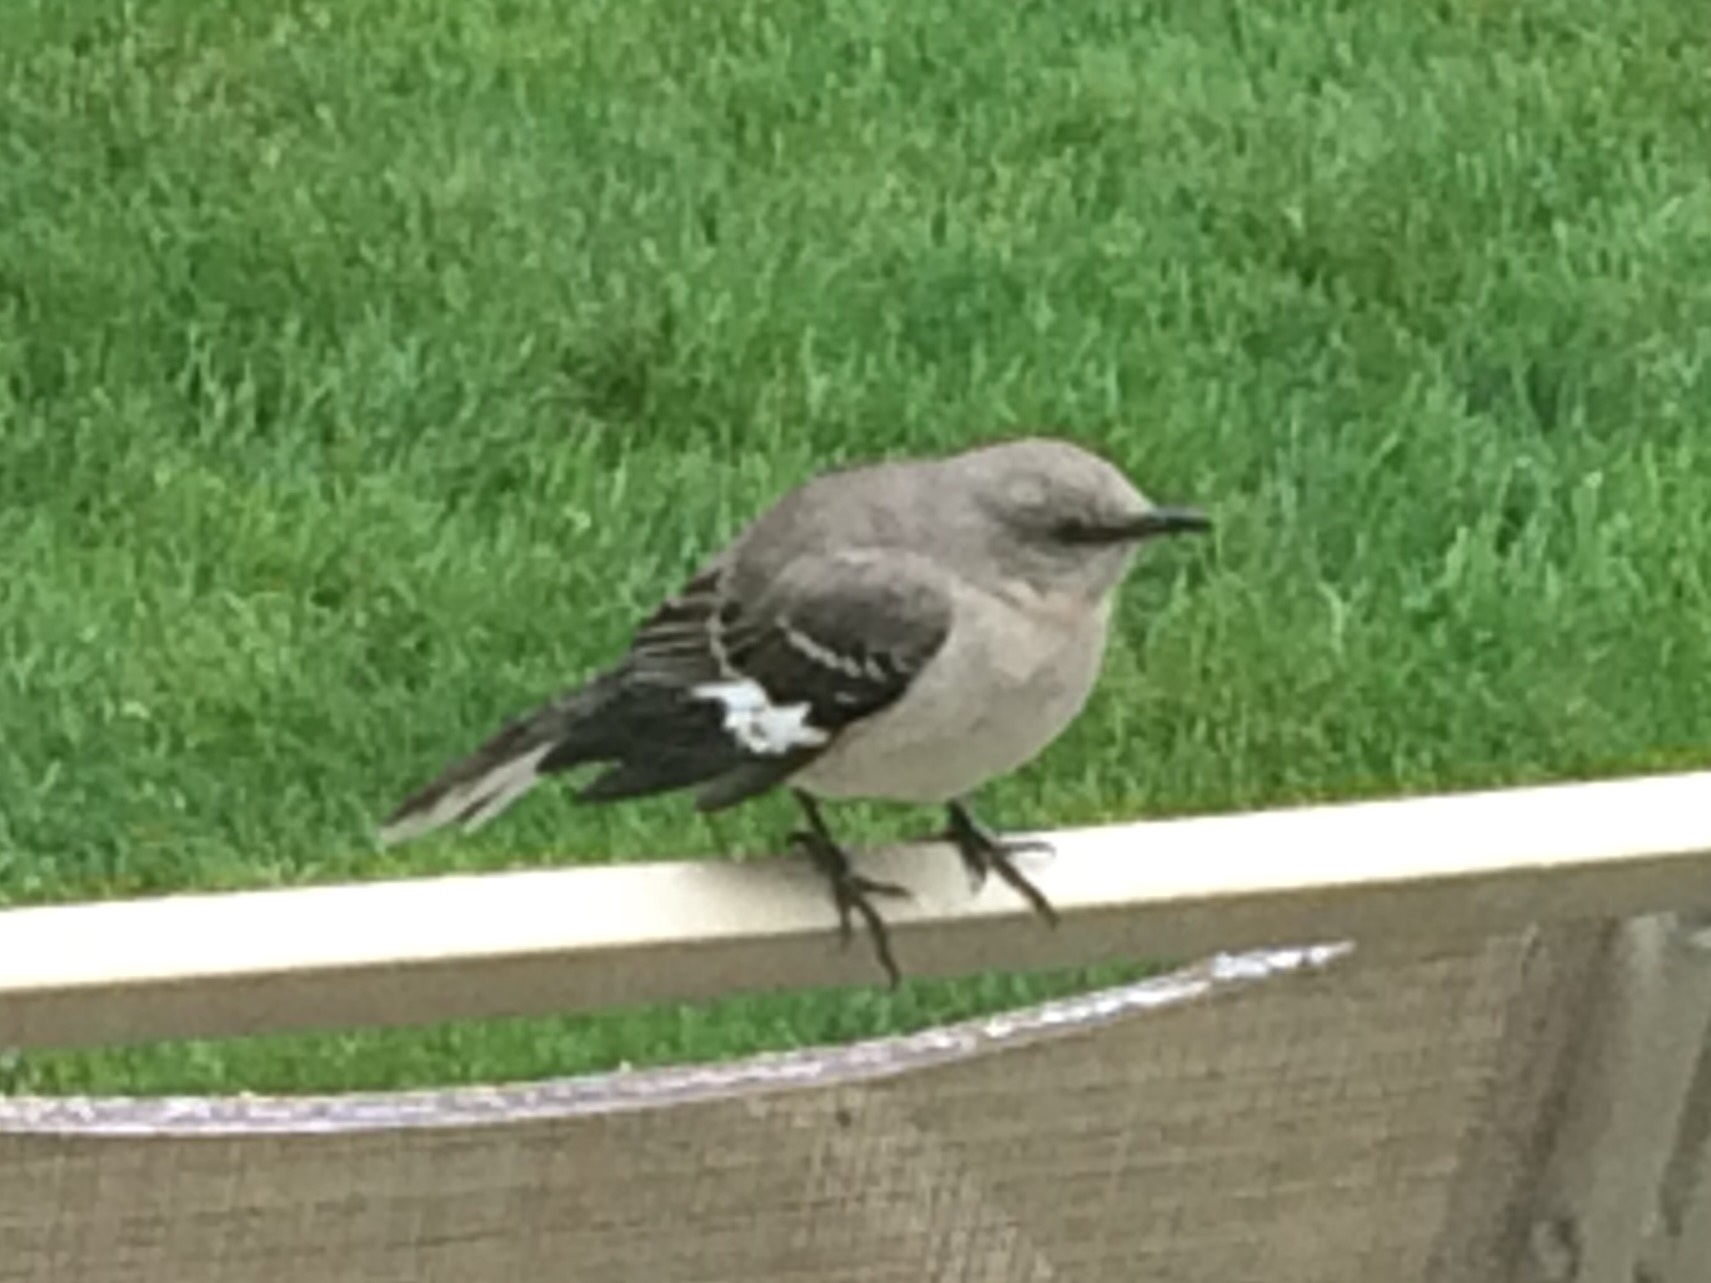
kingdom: Animalia
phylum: Chordata
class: Aves
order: Passeriformes
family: Mimidae
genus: Mimus
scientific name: Mimus polyglottos
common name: Northern mockingbird
